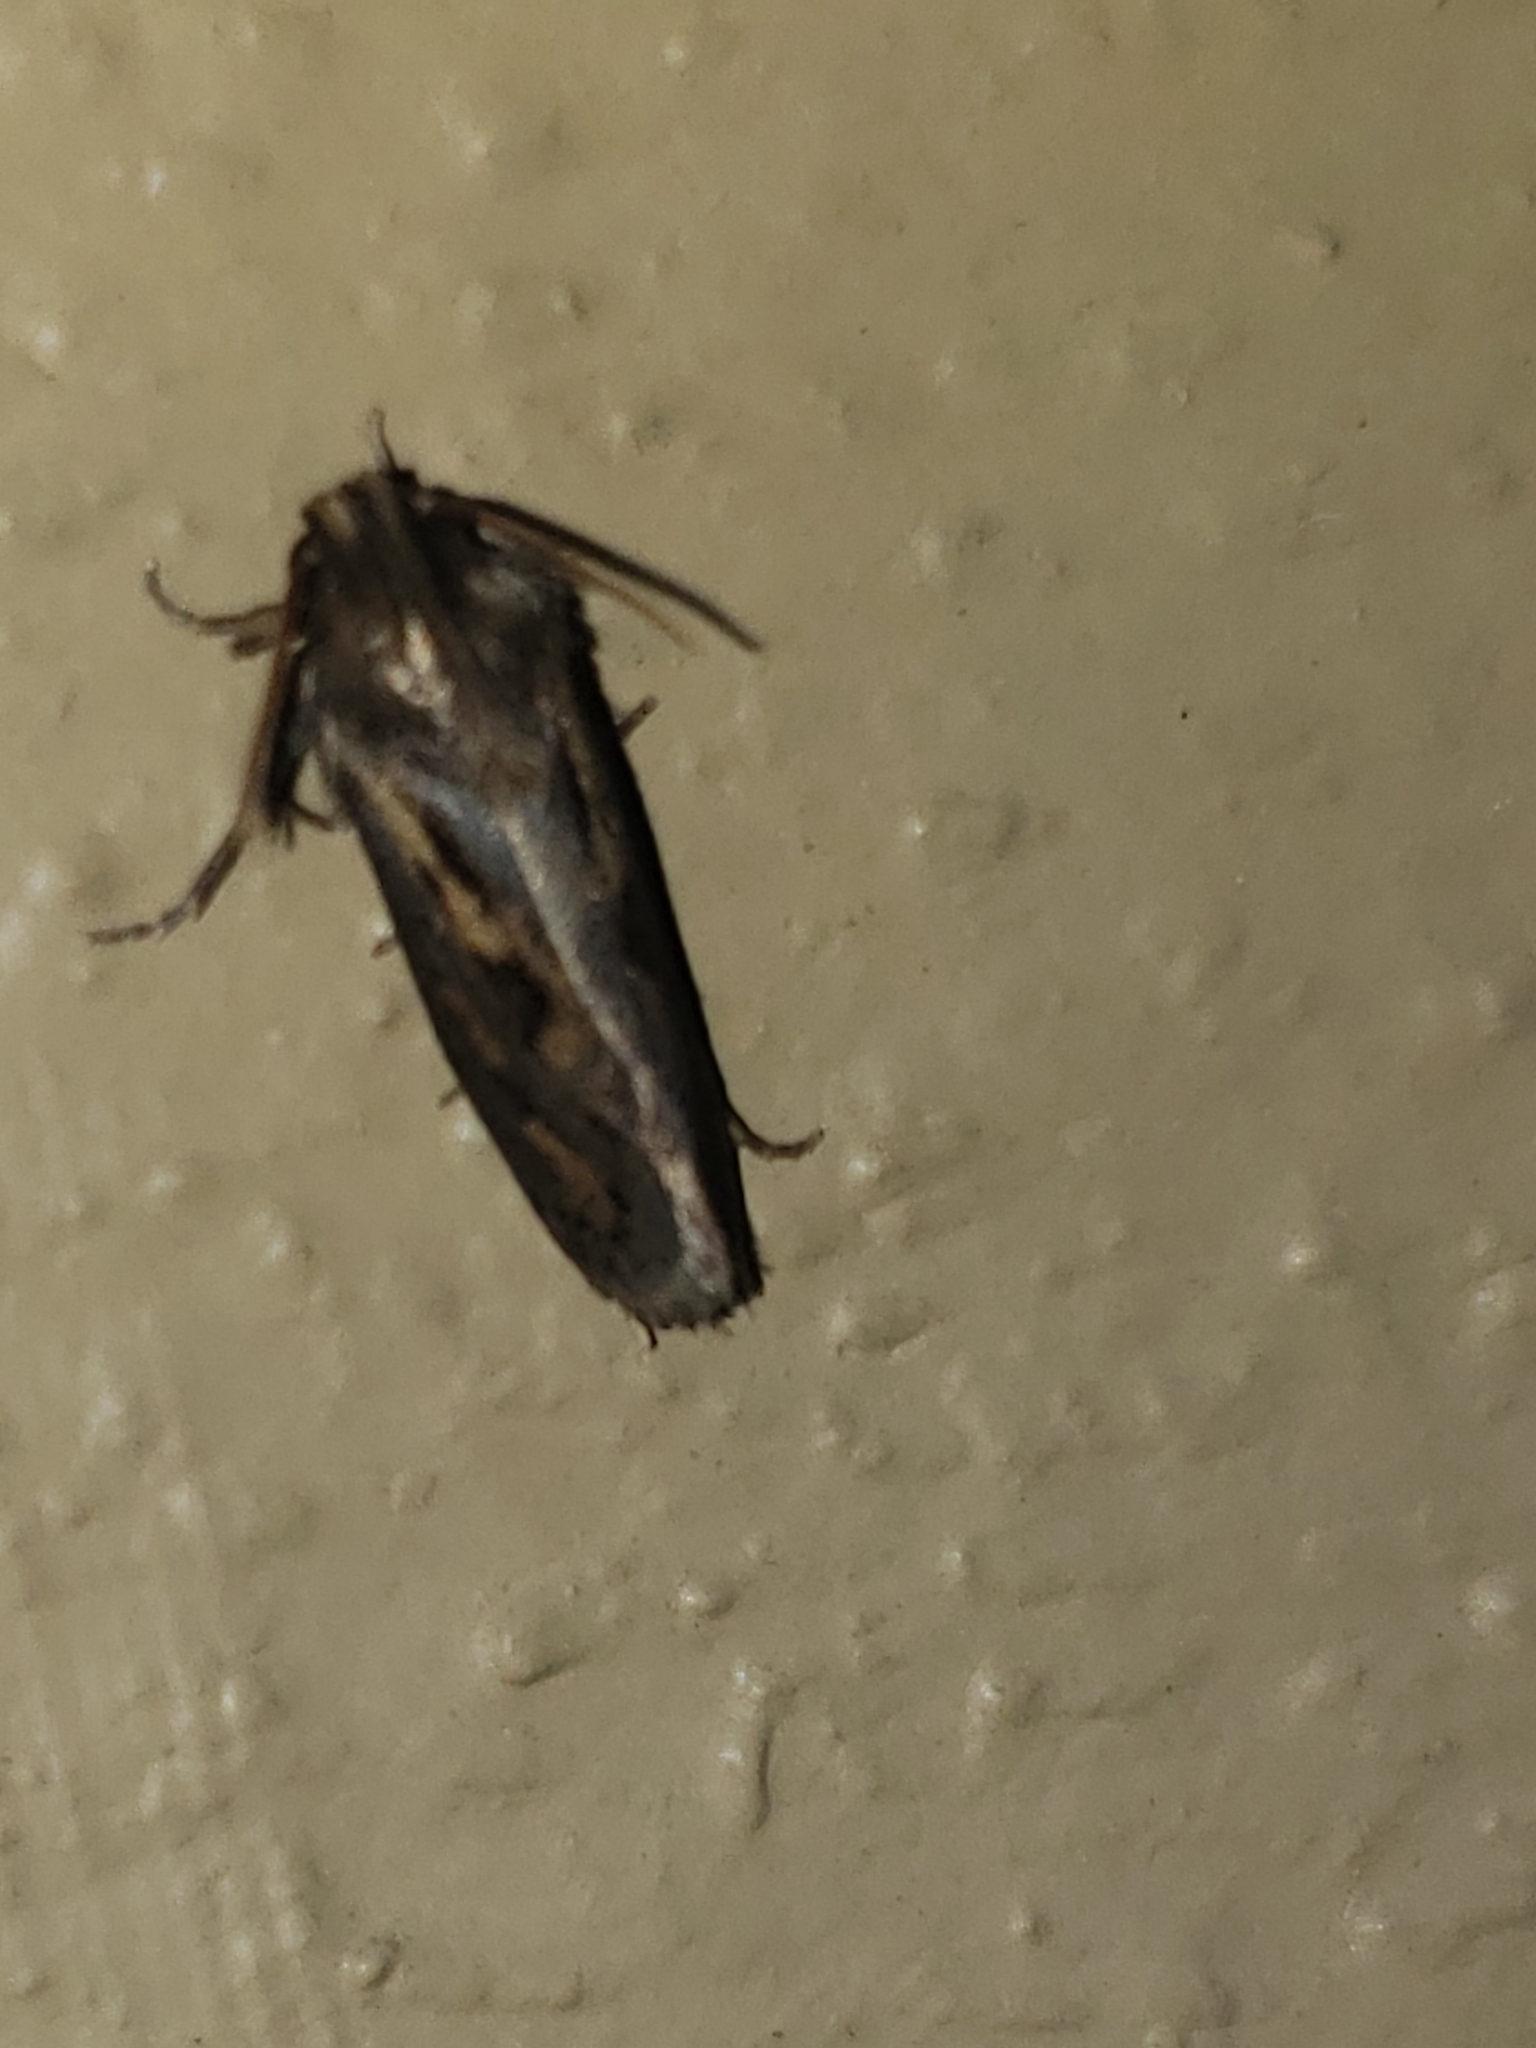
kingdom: Animalia
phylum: Arthropoda
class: Insecta
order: Lepidoptera
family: Tineidae
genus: Acrolophus
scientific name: Acrolophus popeanella
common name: Clemens' grass tubeworm moth
